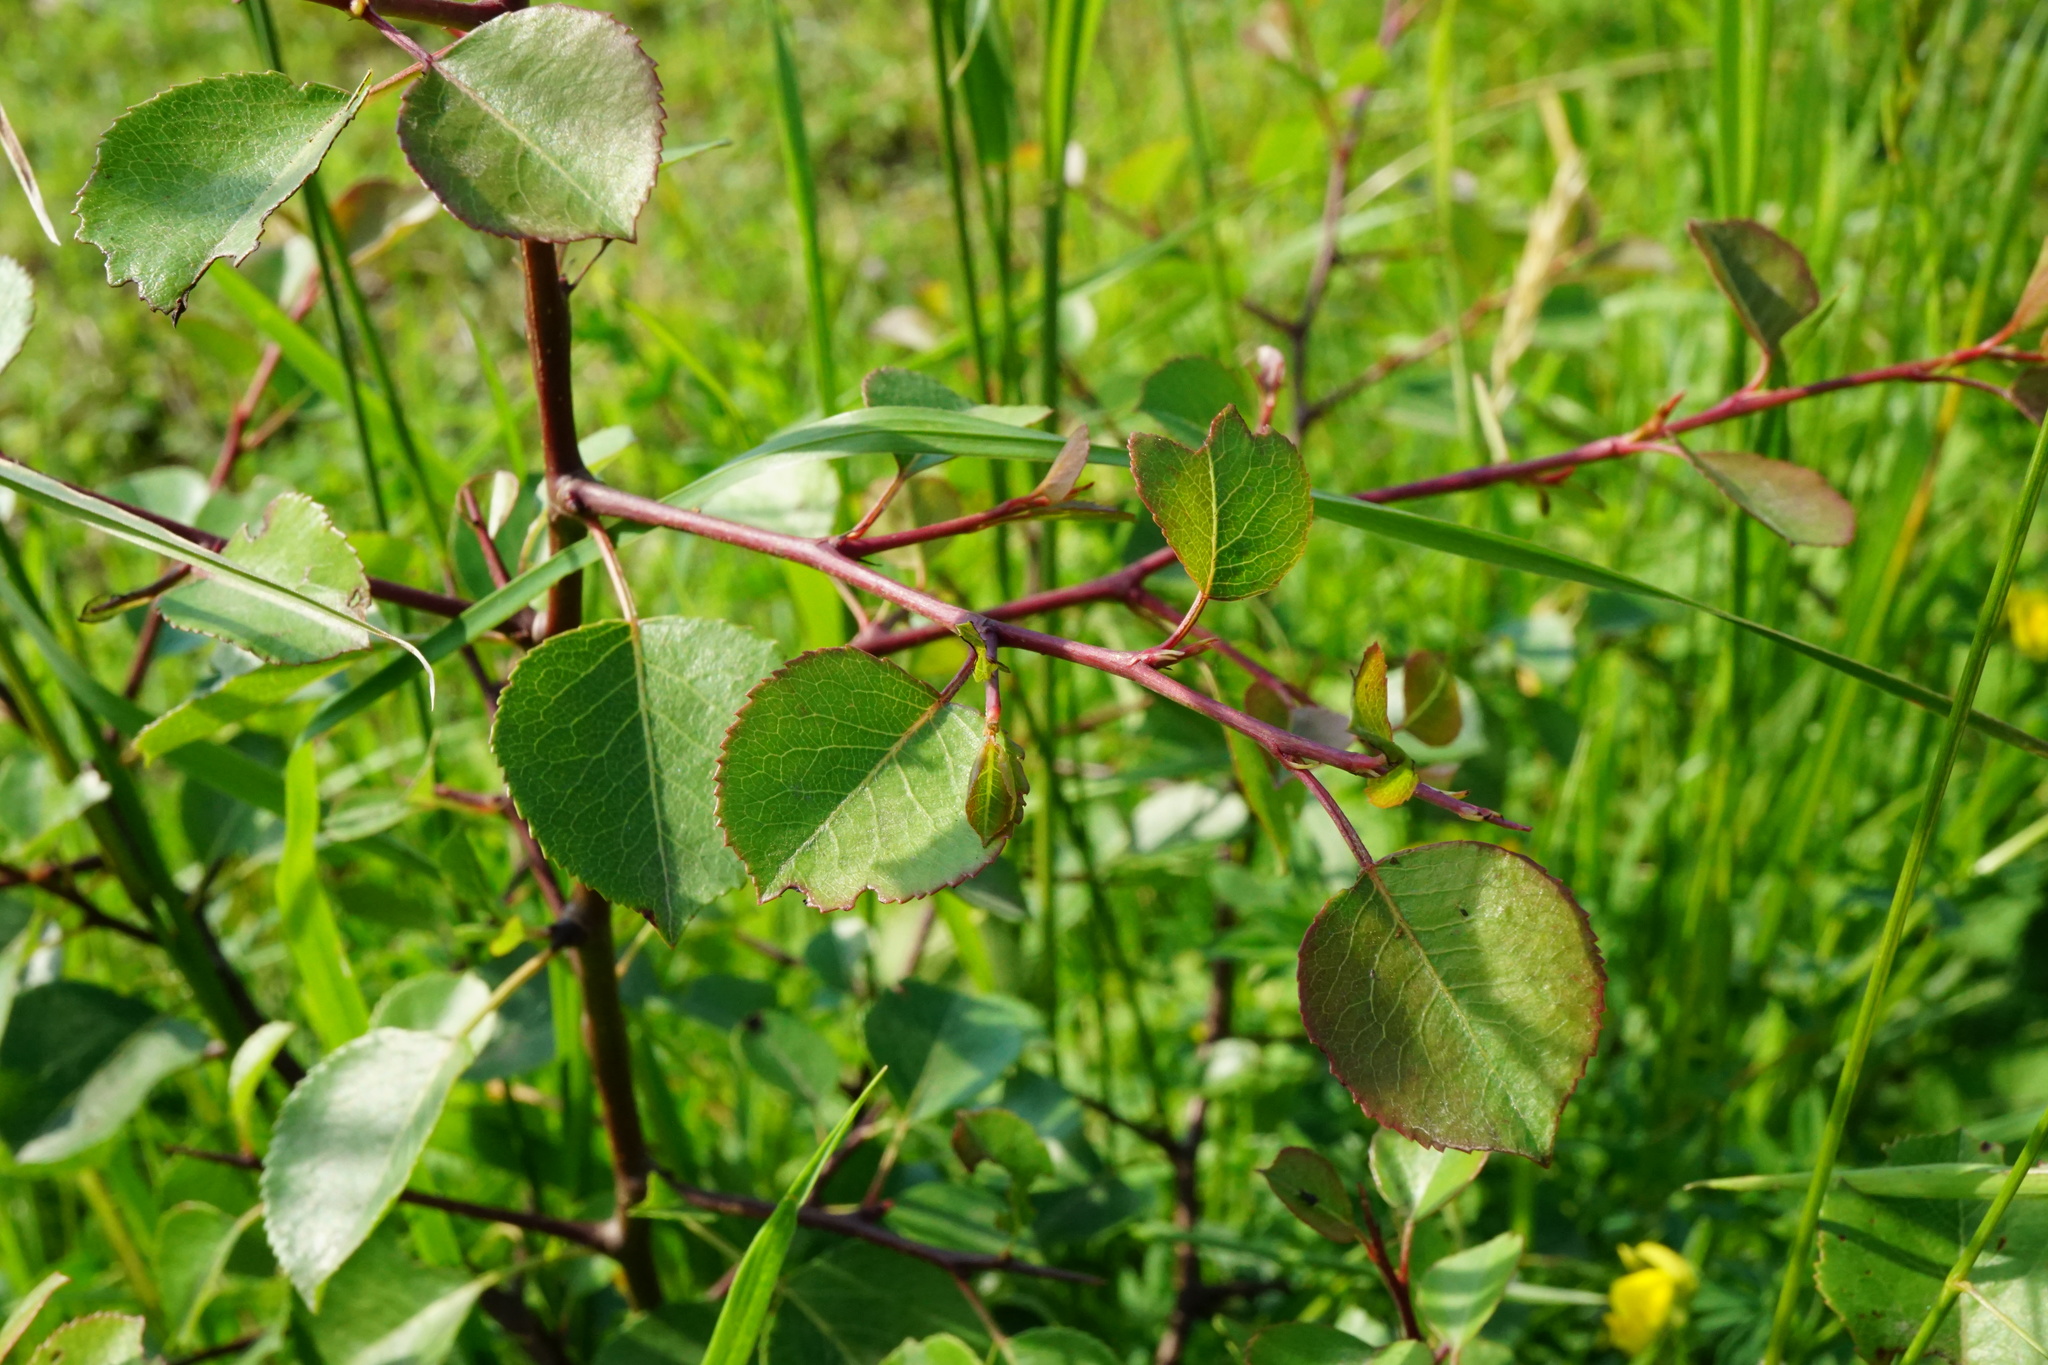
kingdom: Plantae
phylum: Tracheophyta
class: Magnoliopsida
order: Rosales
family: Rosaceae
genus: Pyrus
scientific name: Pyrus
